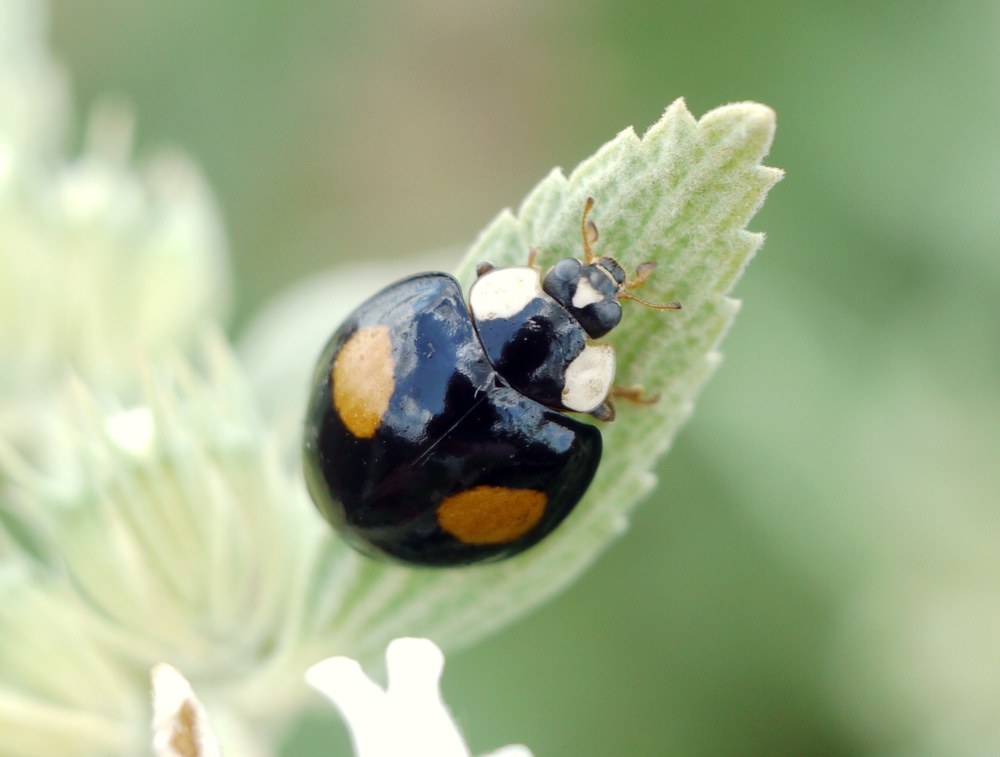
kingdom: Animalia
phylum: Arthropoda
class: Insecta
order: Coleoptera
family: Coccinellidae
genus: Harmonia
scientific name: Harmonia axyridis
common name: Harlequin ladybird
